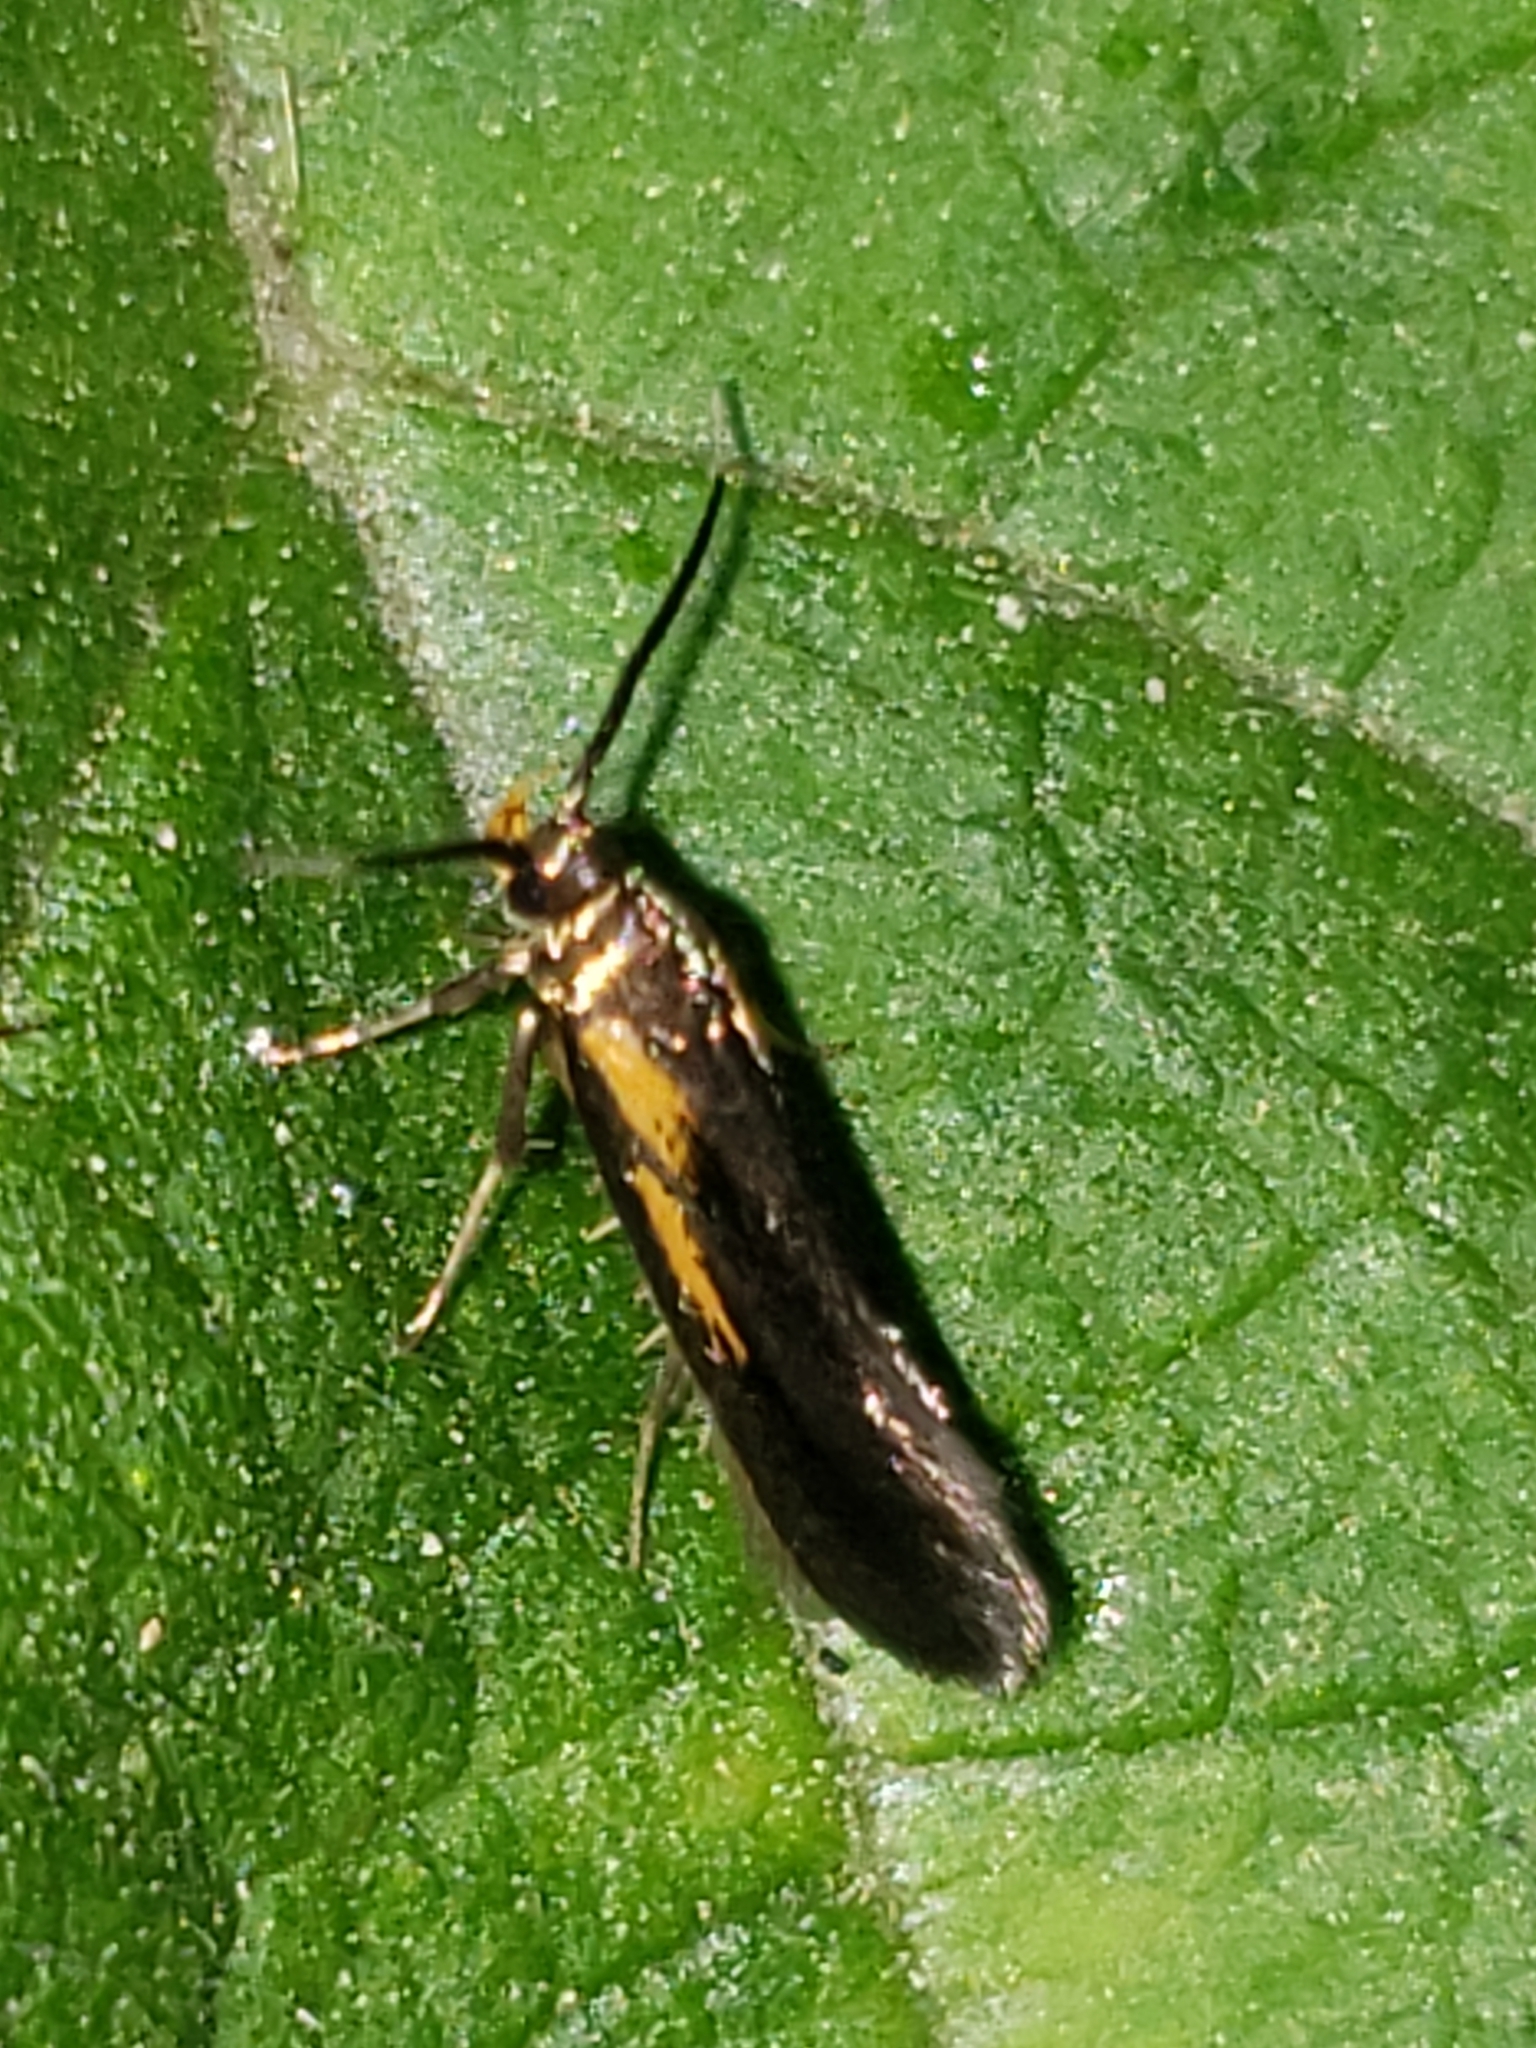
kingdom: Animalia
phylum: Arthropoda
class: Insecta
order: Lepidoptera
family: Oecophoridae
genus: Mathildana
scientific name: Mathildana newmanella
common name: Newman's mathildana moth
